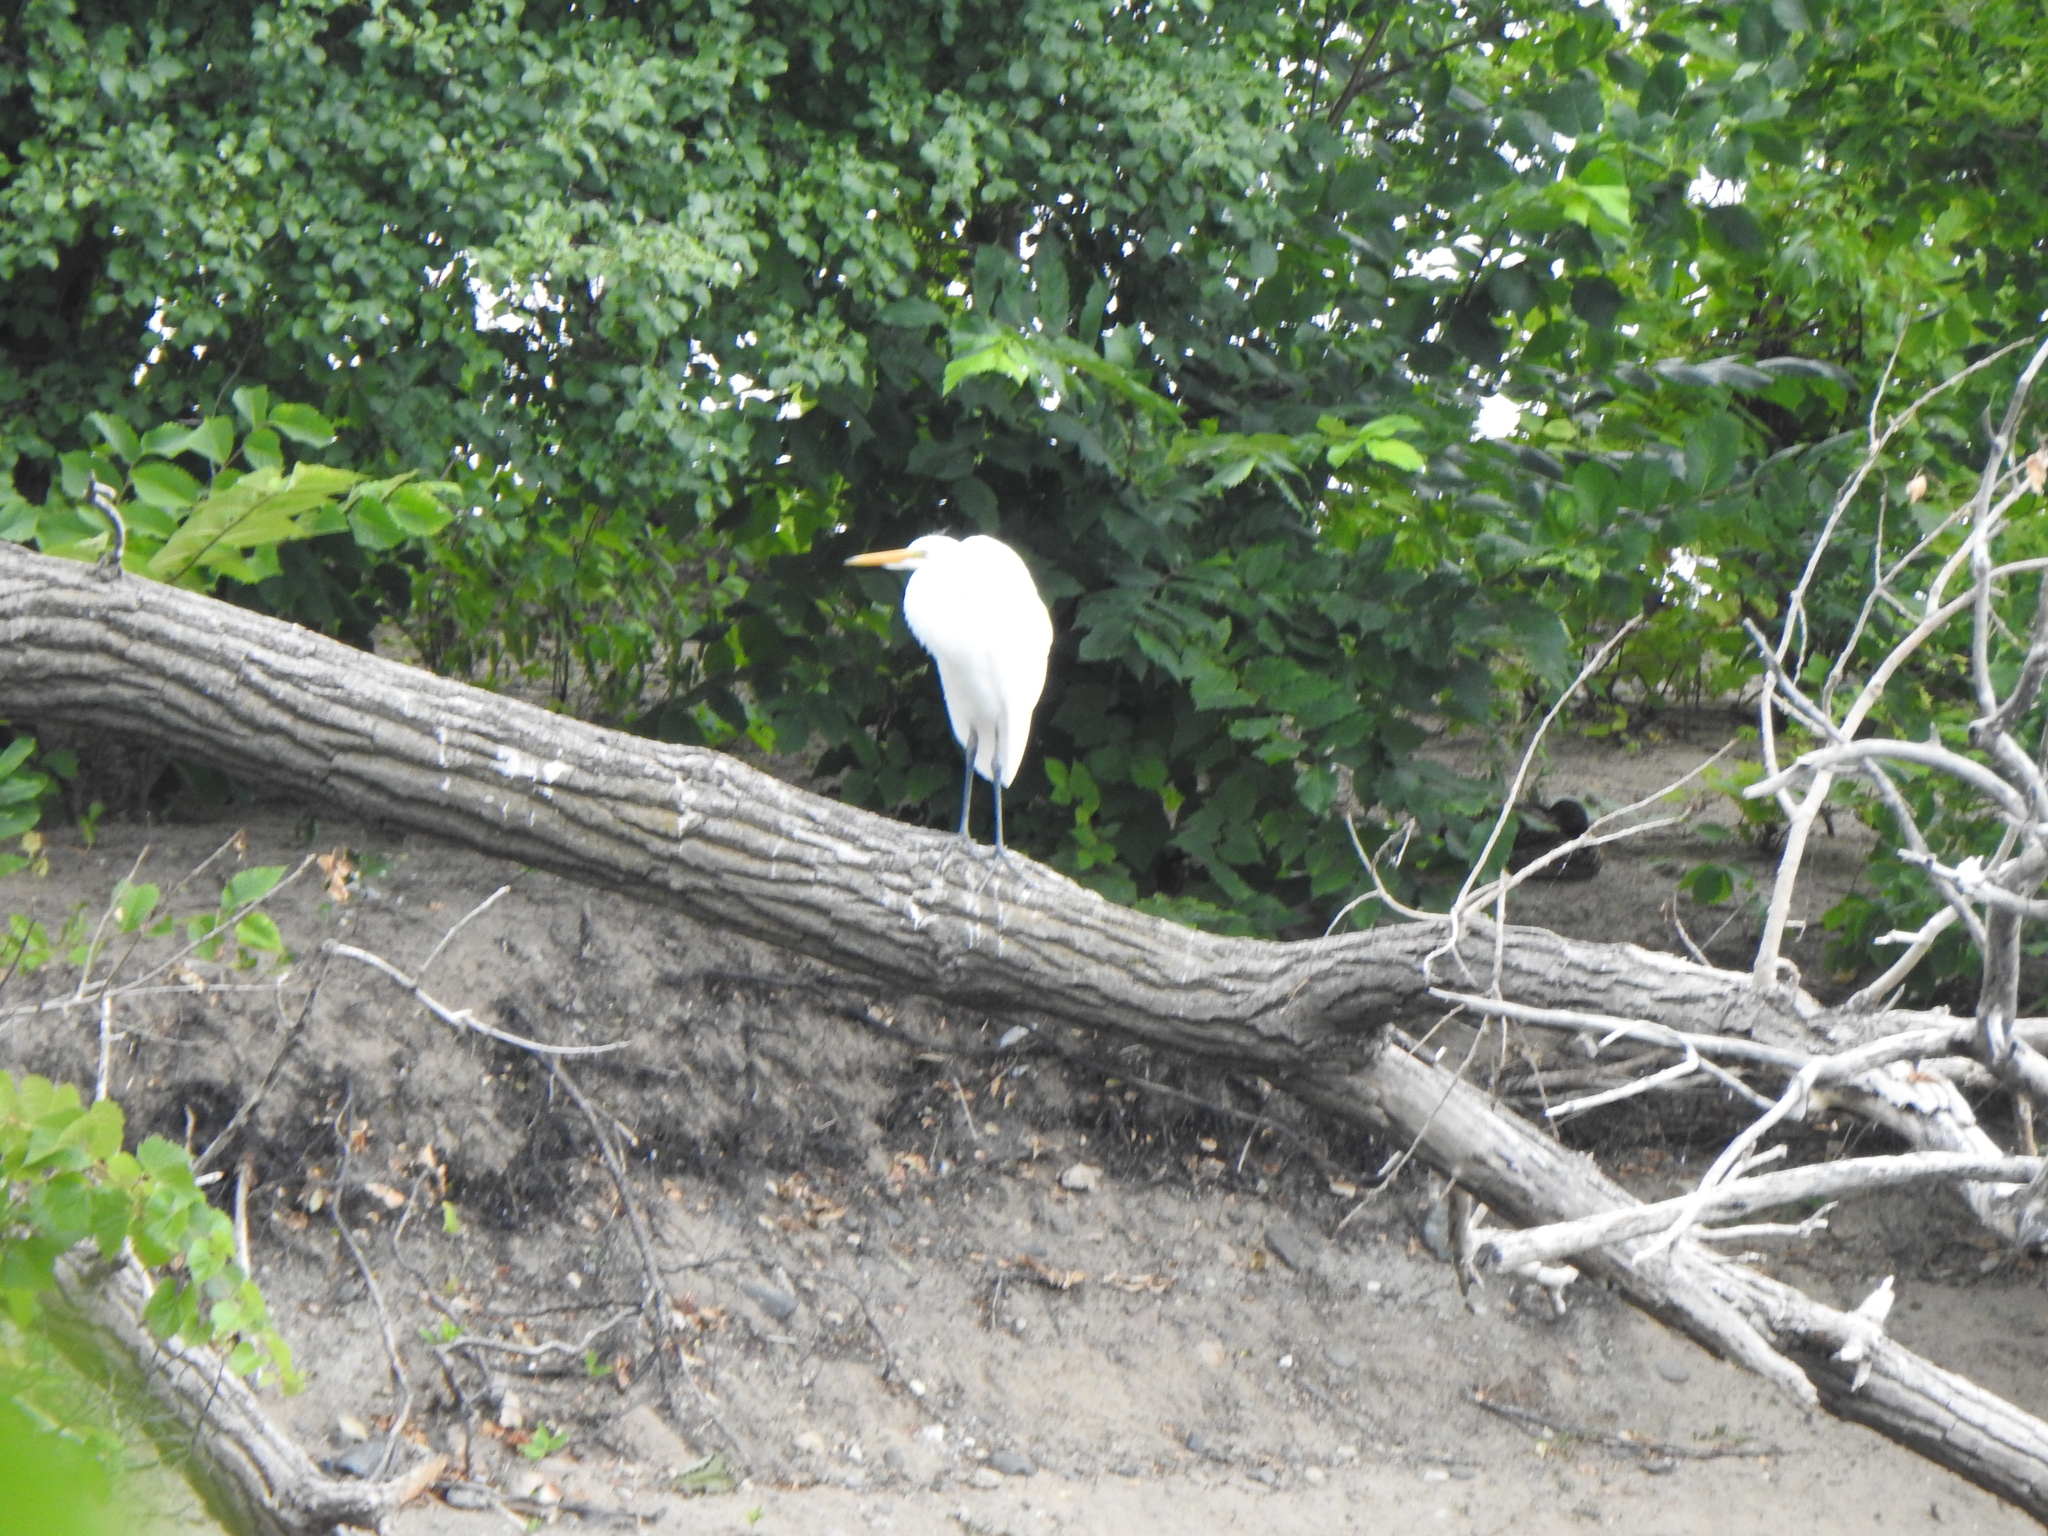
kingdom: Animalia
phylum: Chordata
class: Aves
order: Pelecaniformes
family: Ardeidae
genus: Ardea
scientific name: Ardea alba
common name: Great egret
